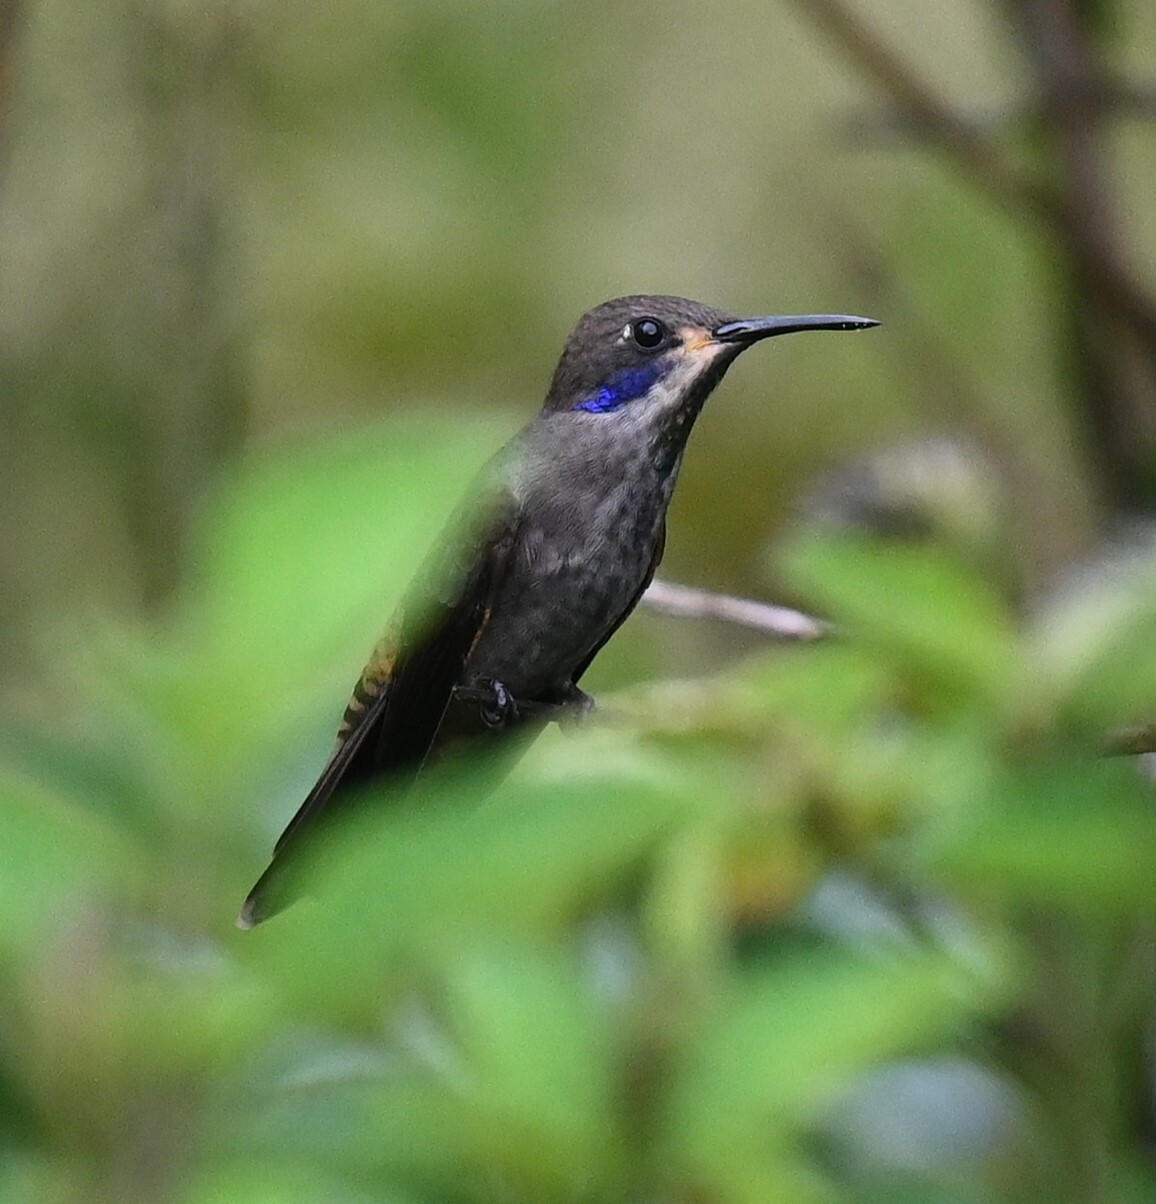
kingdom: Animalia
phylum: Chordata
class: Aves
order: Apodiformes
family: Trochilidae
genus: Colibri
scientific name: Colibri delphinae
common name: Brown violetear
